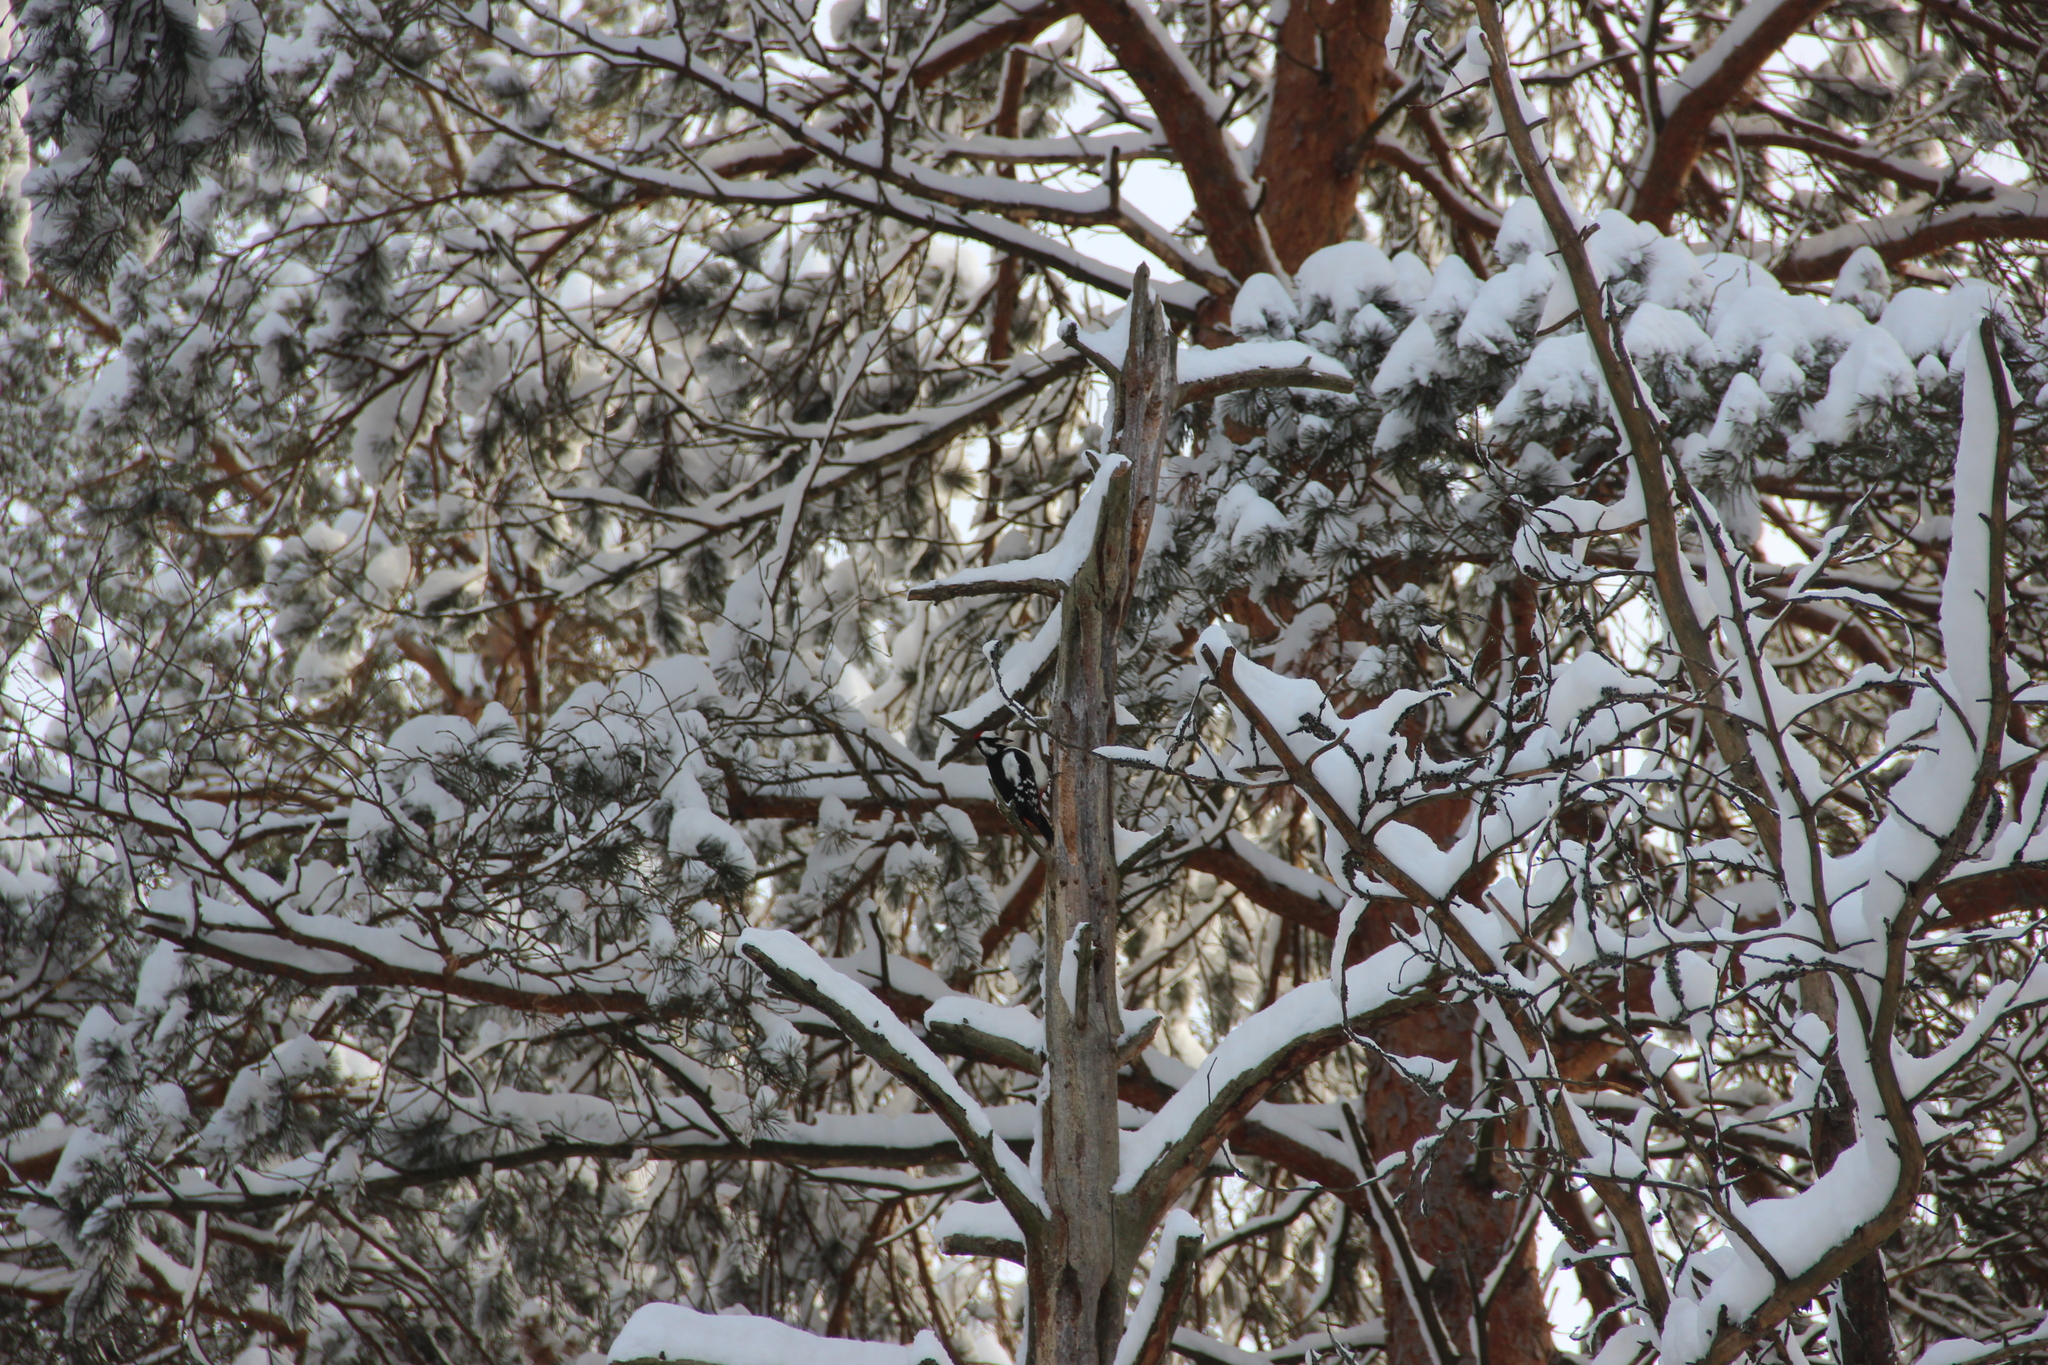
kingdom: Animalia
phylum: Chordata
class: Aves
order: Piciformes
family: Picidae
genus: Dendrocopos
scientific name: Dendrocopos major
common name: Great spotted woodpecker
